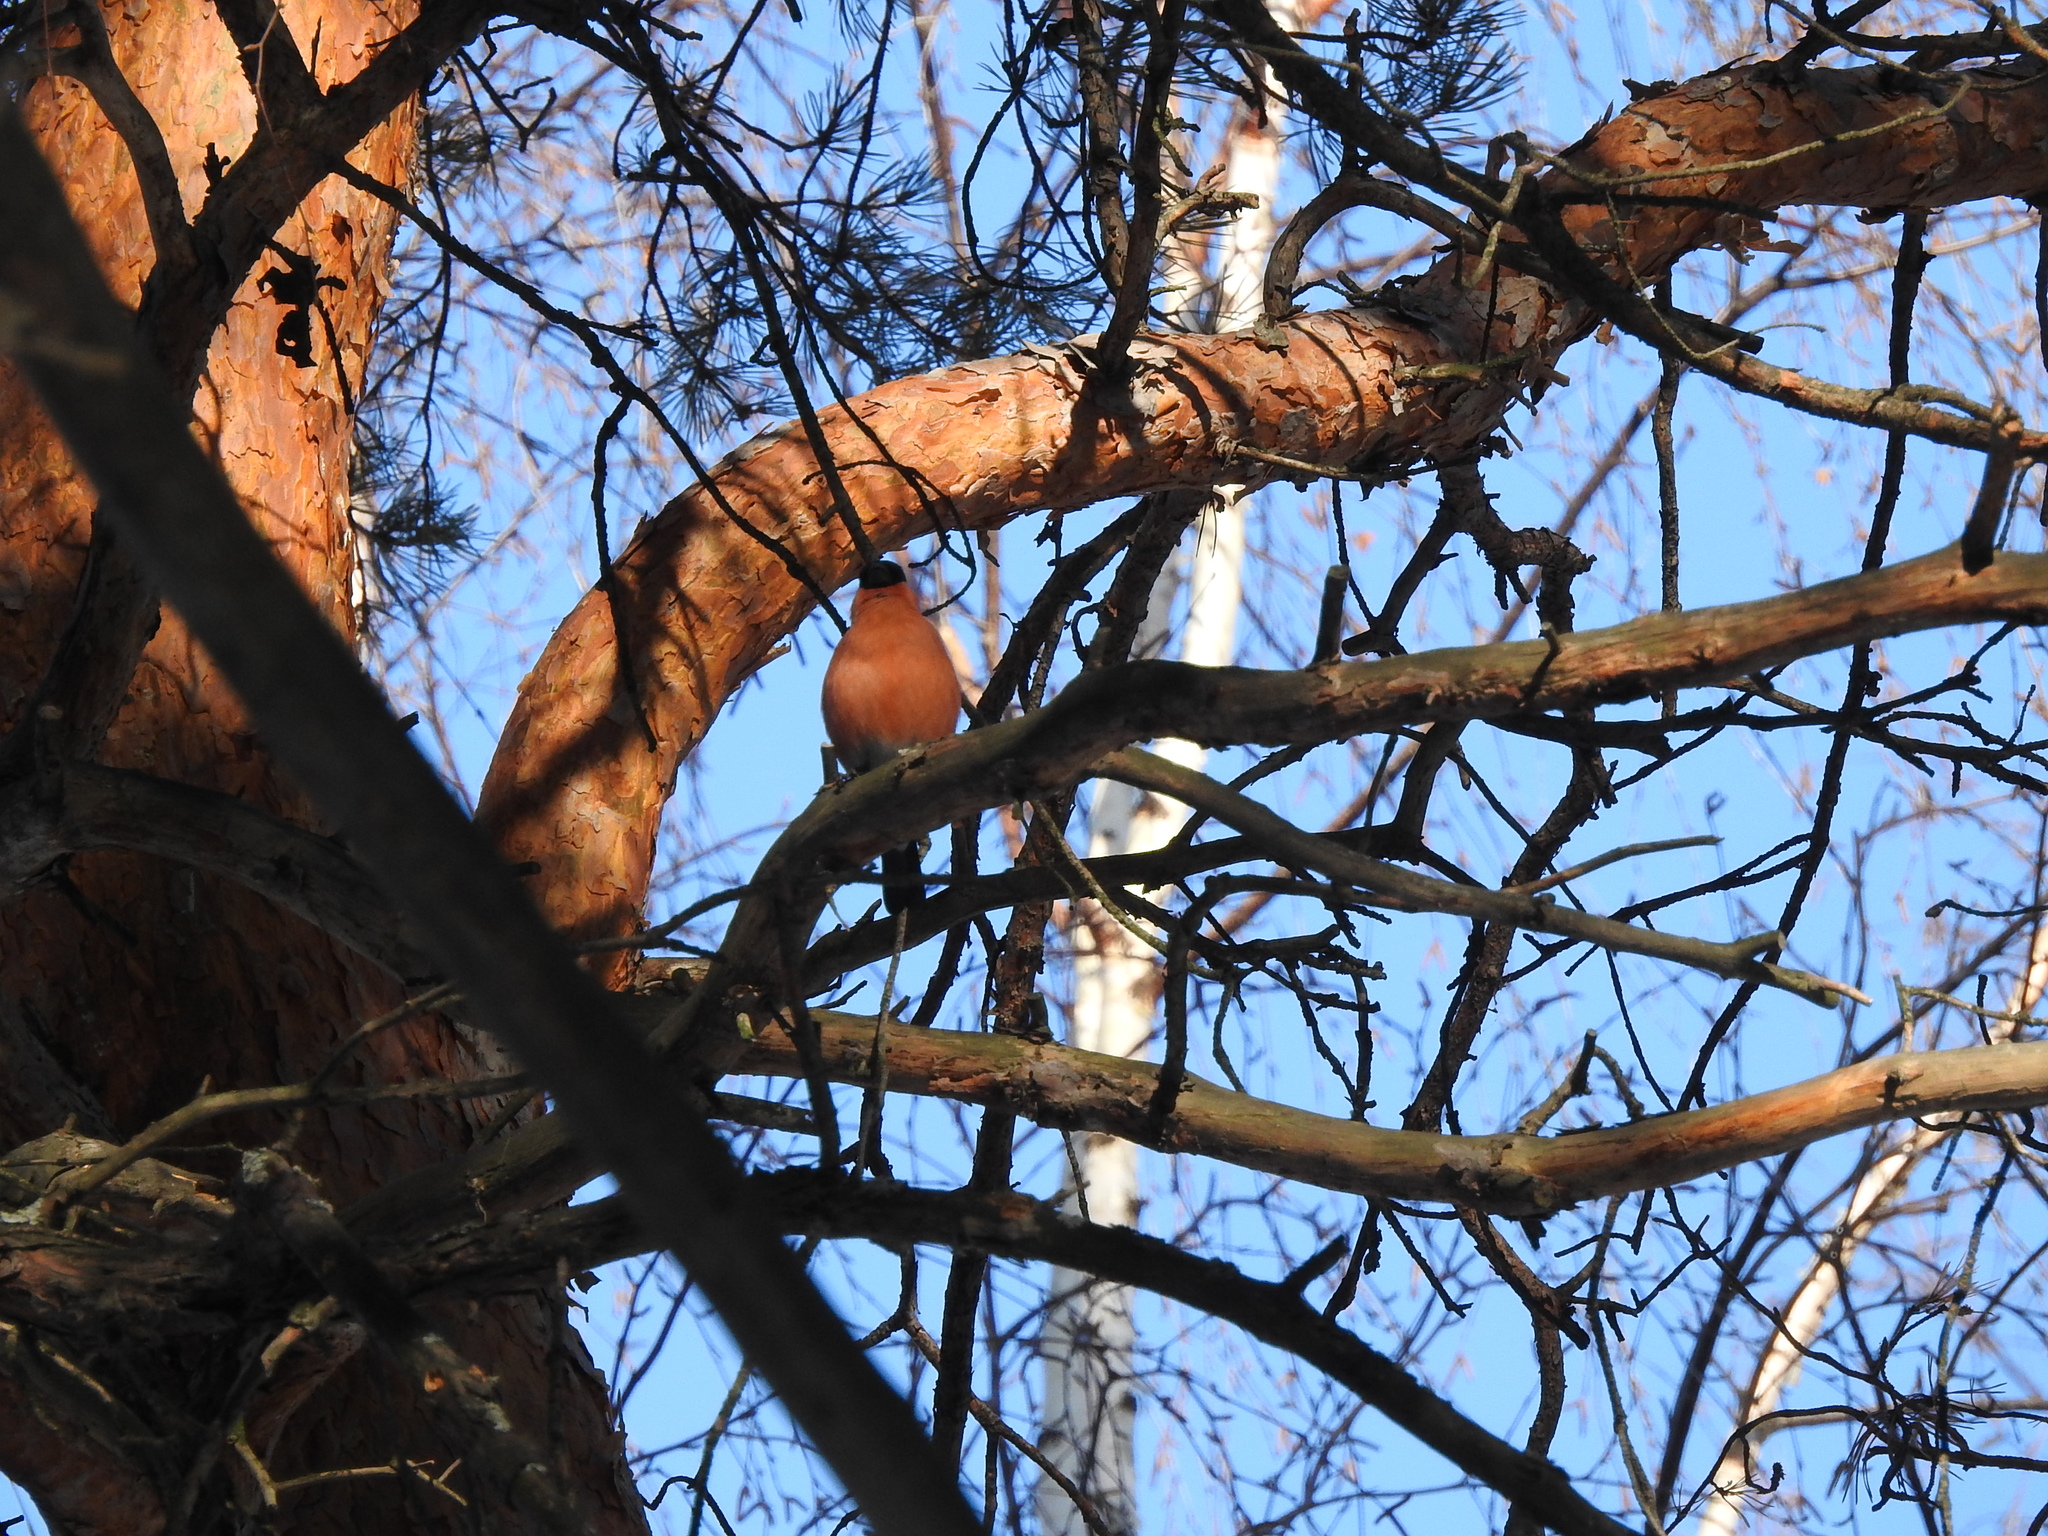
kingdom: Animalia
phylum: Chordata
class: Aves
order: Passeriformes
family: Fringillidae
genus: Pyrrhula
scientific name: Pyrrhula pyrrhula
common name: Eurasian bullfinch
